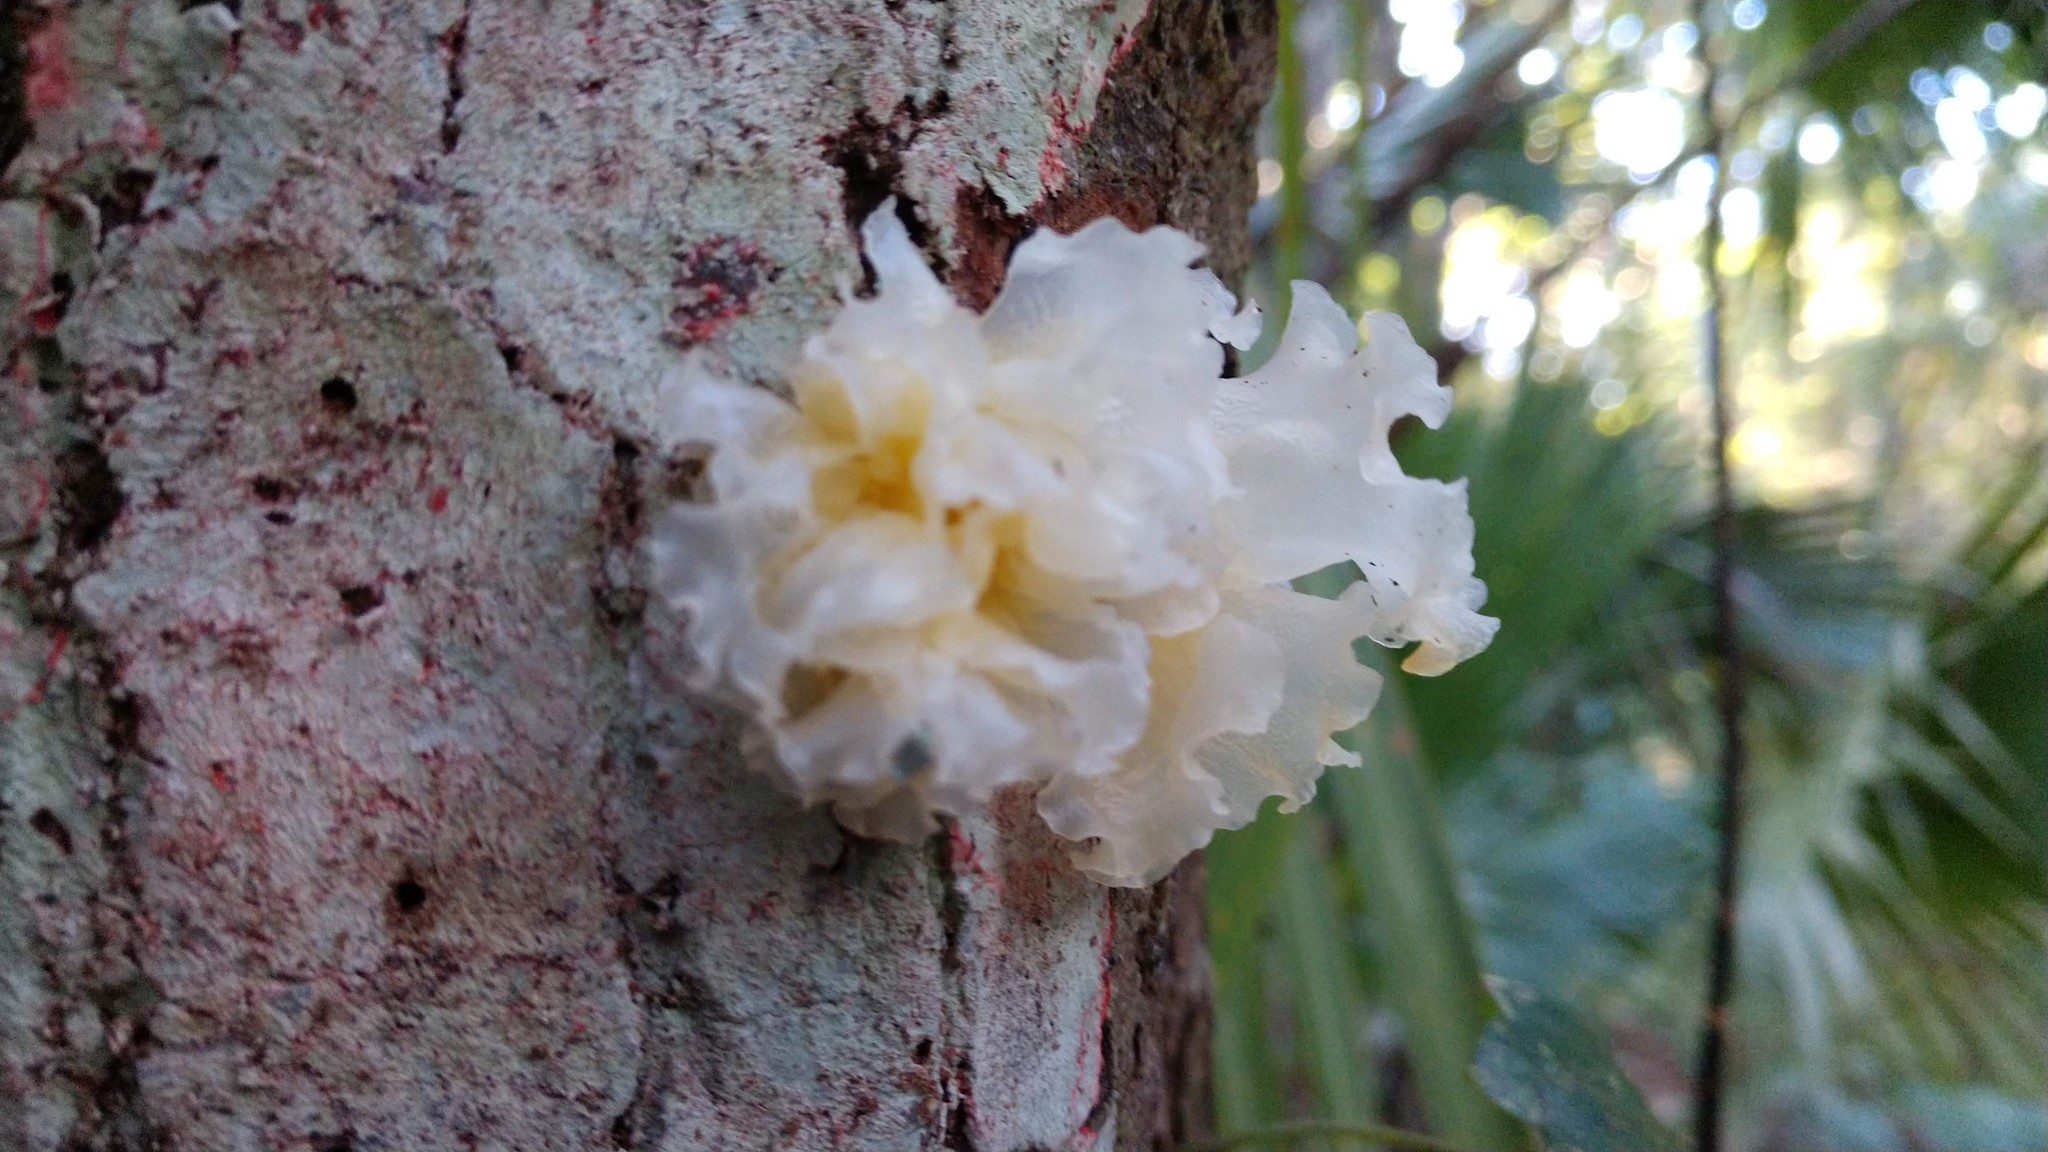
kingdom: Fungi
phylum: Basidiomycota
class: Tremellomycetes
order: Tremellales
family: Tremellaceae
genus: Tremella
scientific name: Tremella fuciformis
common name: Snow fungus
